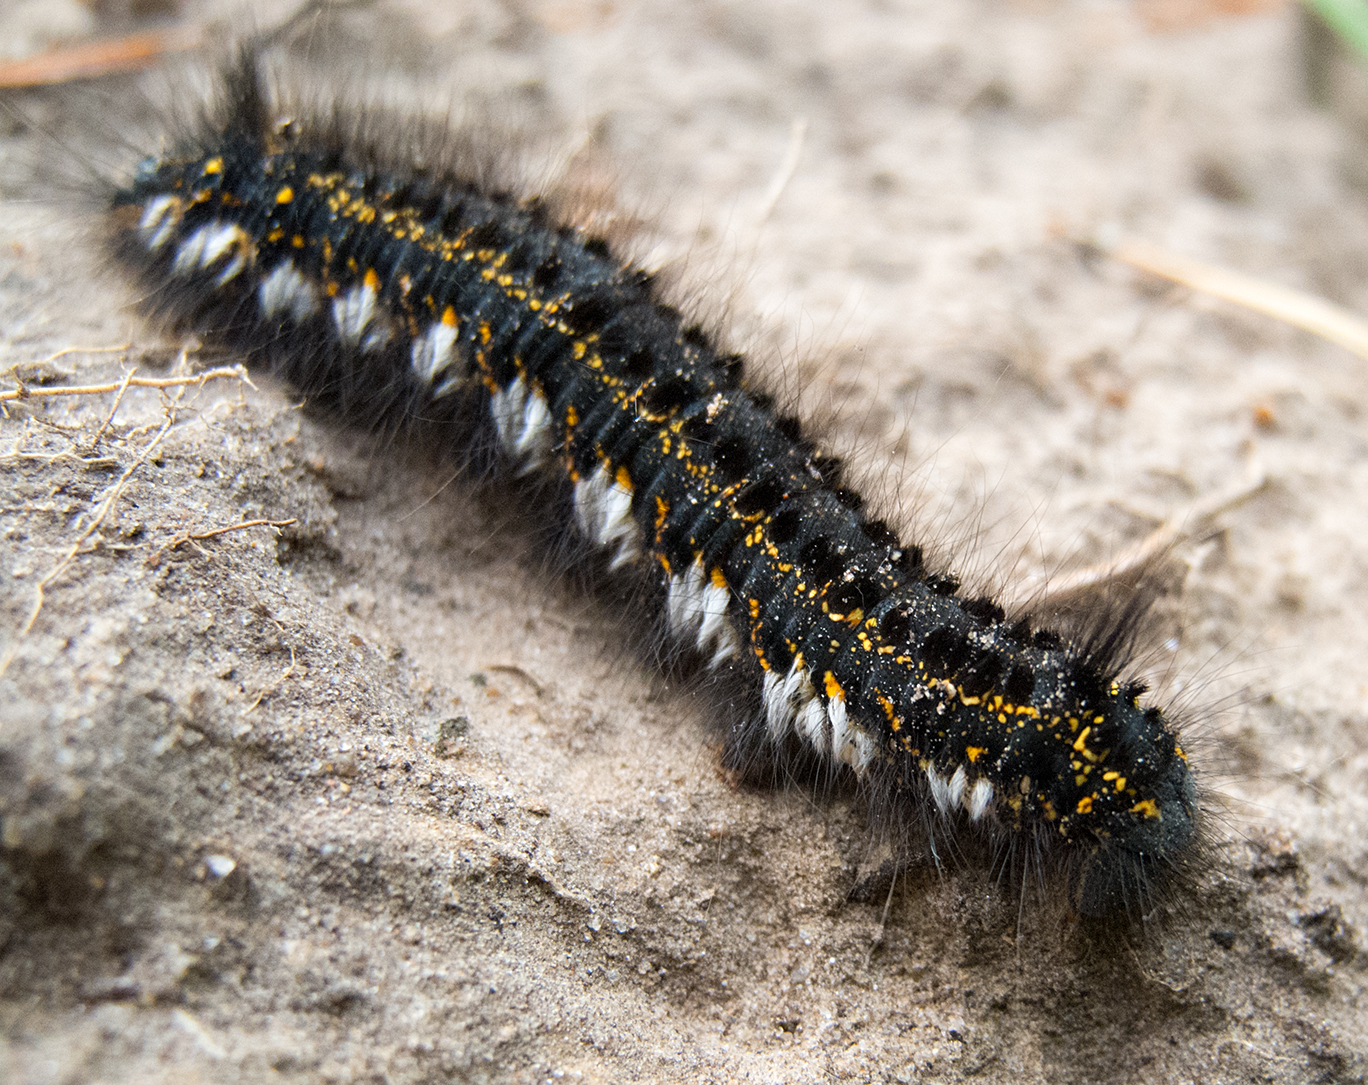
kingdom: Animalia
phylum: Arthropoda
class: Insecta
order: Lepidoptera
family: Lasiocampidae
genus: Euthrix
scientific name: Euthrix potatoria
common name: Drinker
